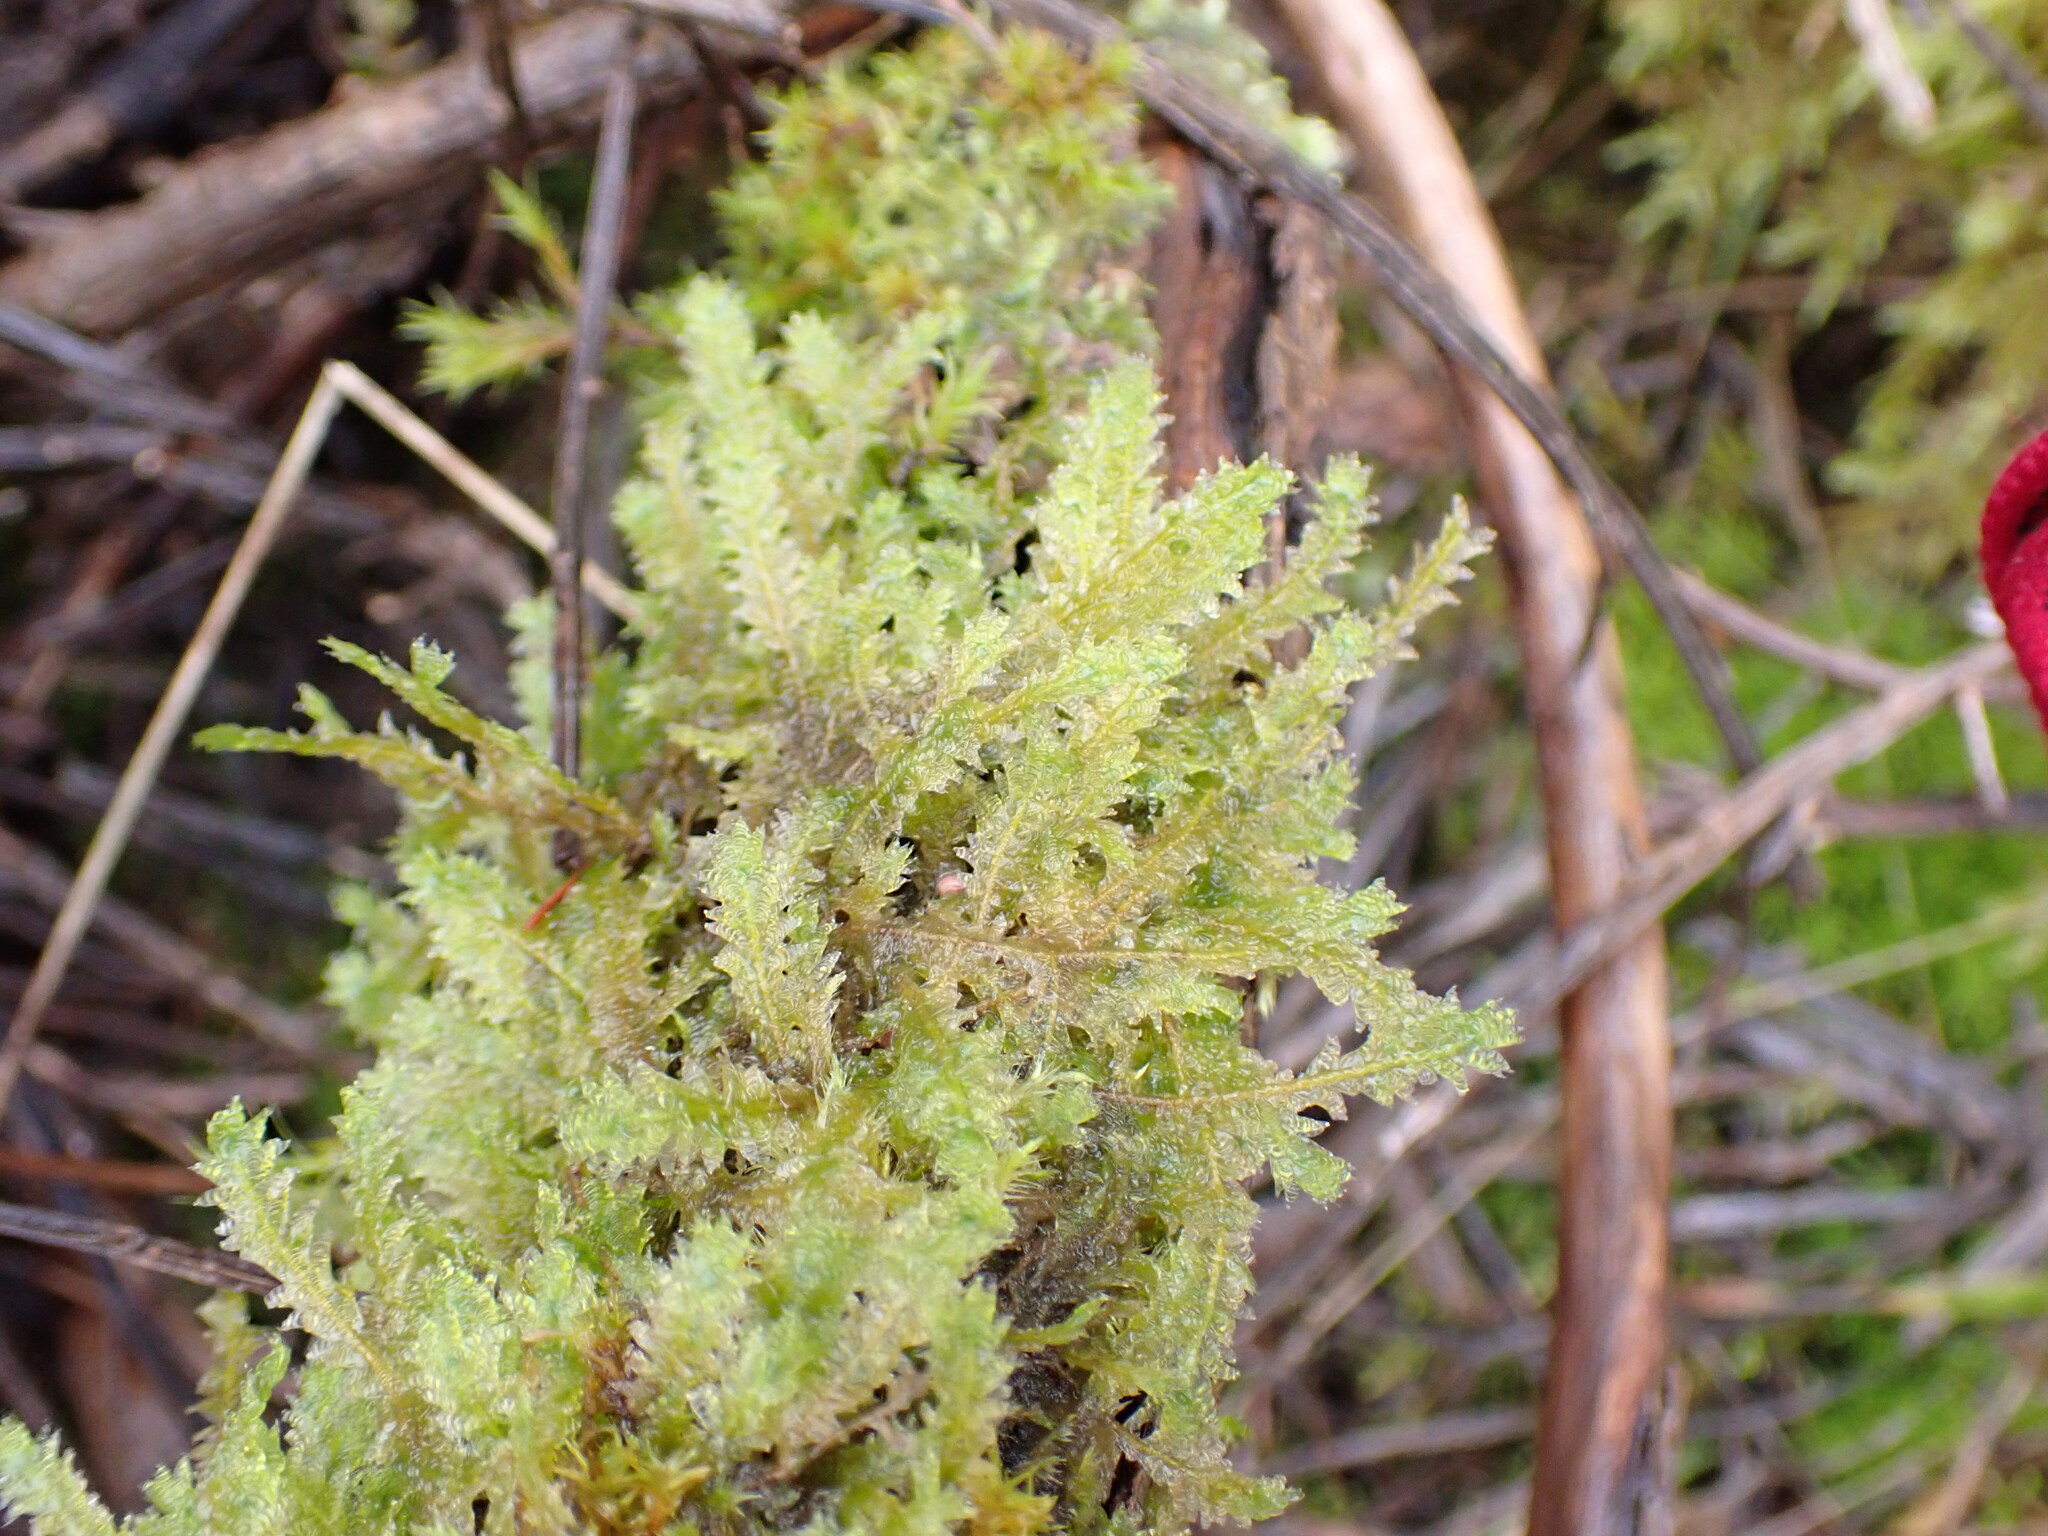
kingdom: Plantae
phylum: Bryophyta
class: Bryopsida
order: Hypnales
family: Neckeraceae
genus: Neckera
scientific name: Neckera douglasii
